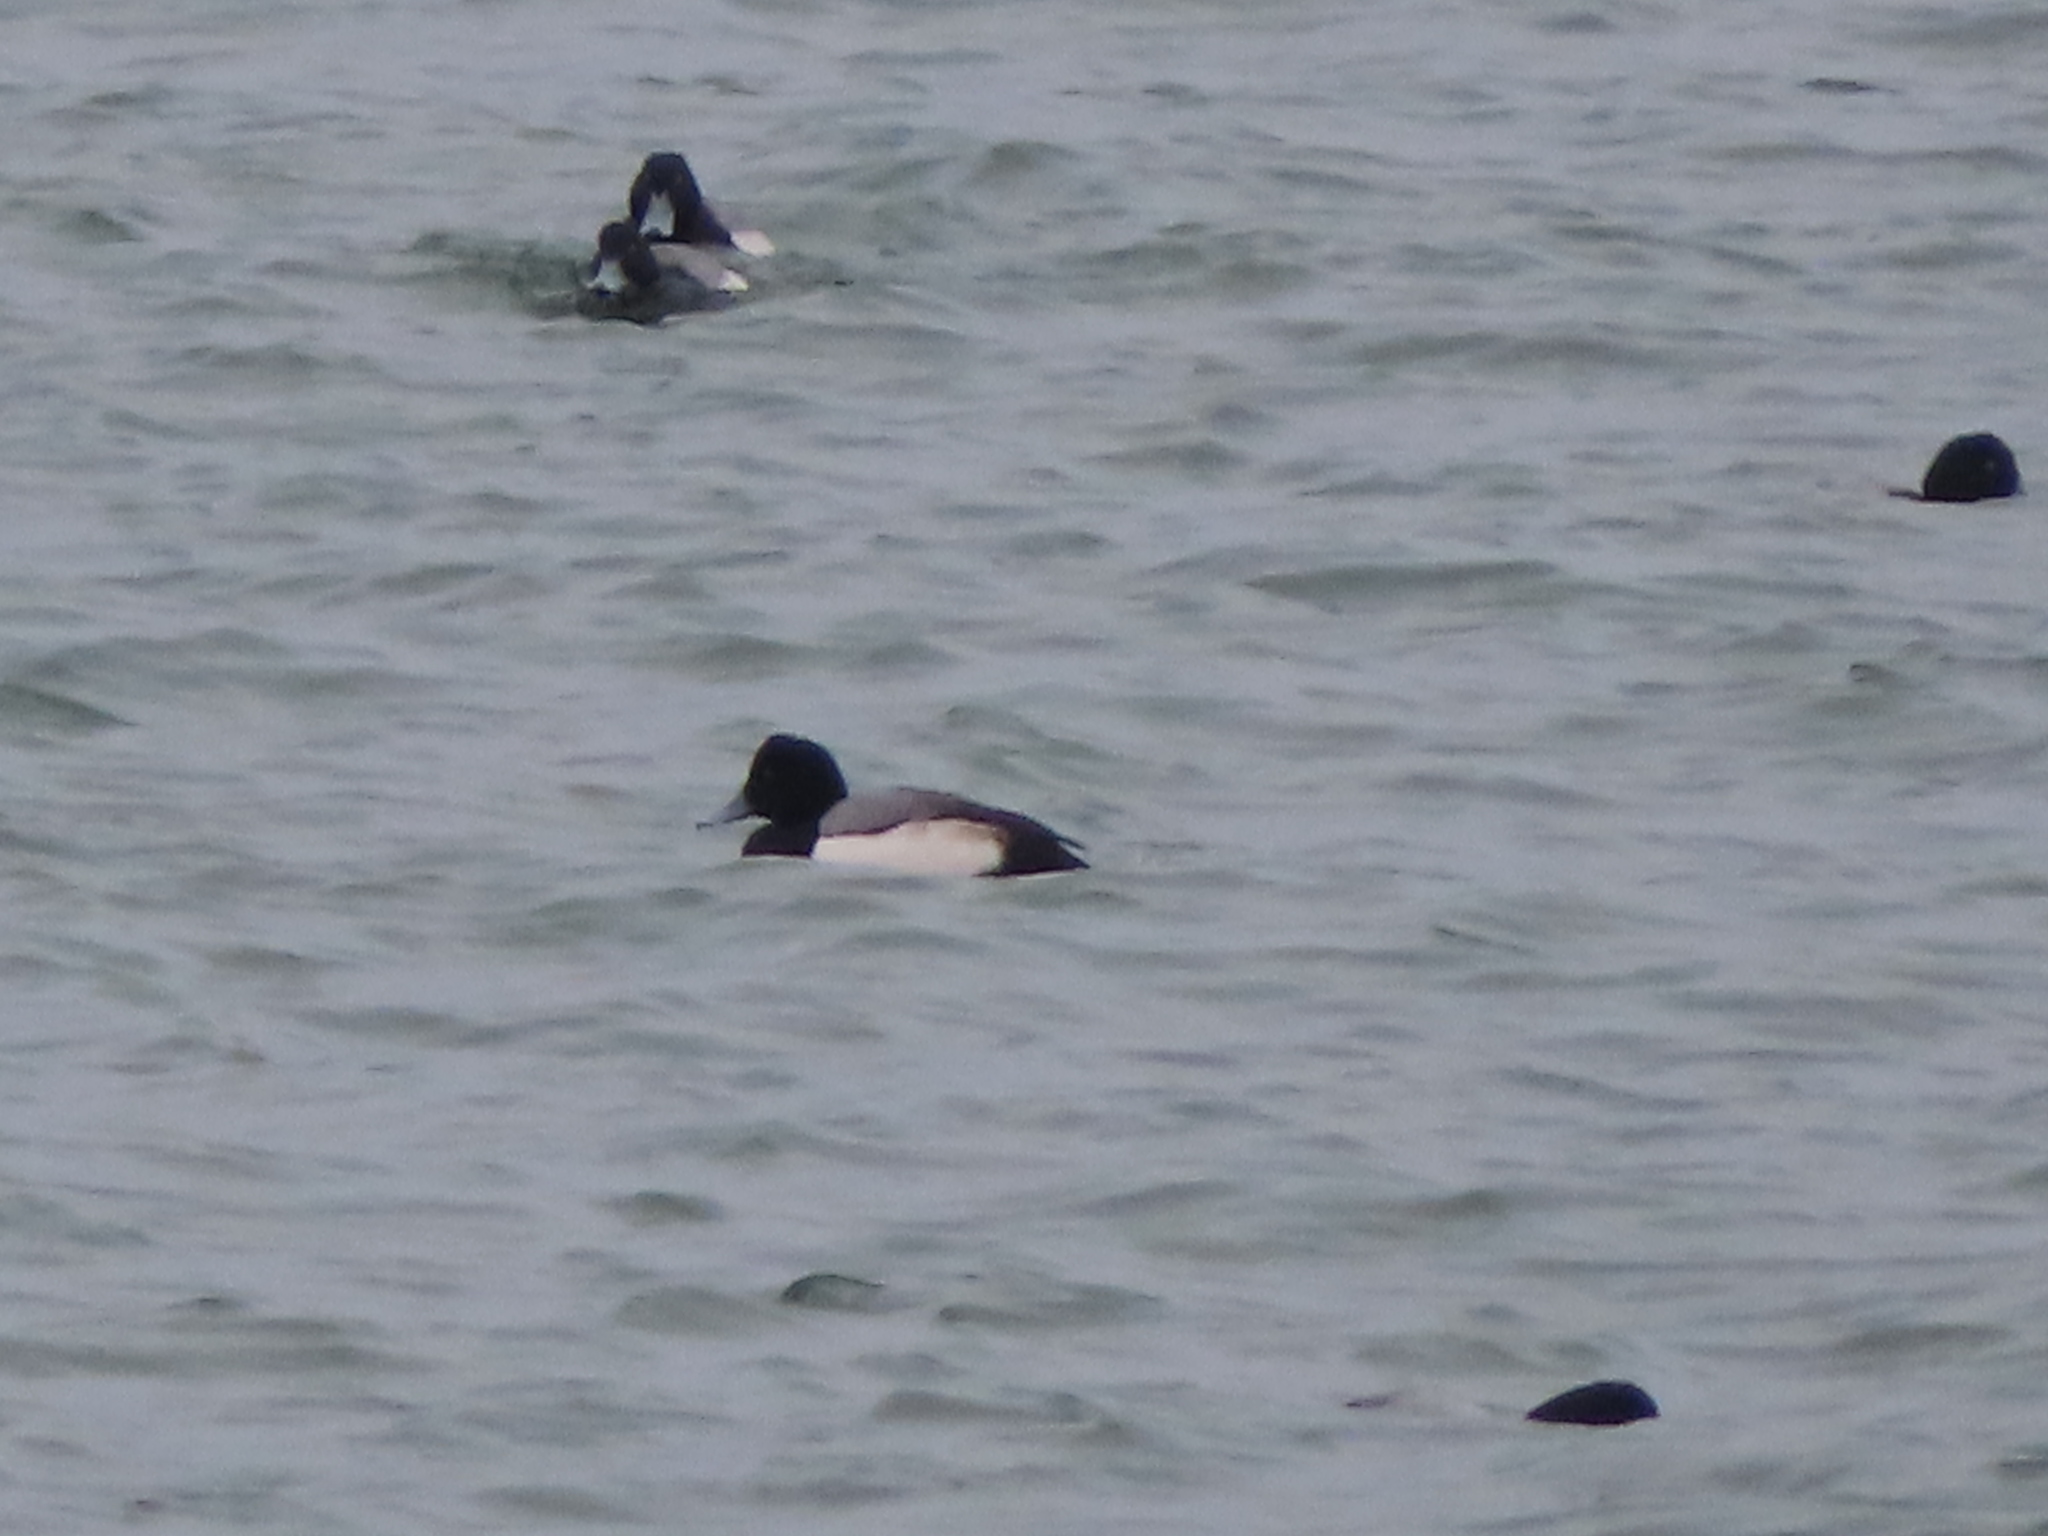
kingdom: Animalia
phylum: Chordata
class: Aves
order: Anseriformes
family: Anatidae
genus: Aythya
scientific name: Aythya marila
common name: Greater scaup
